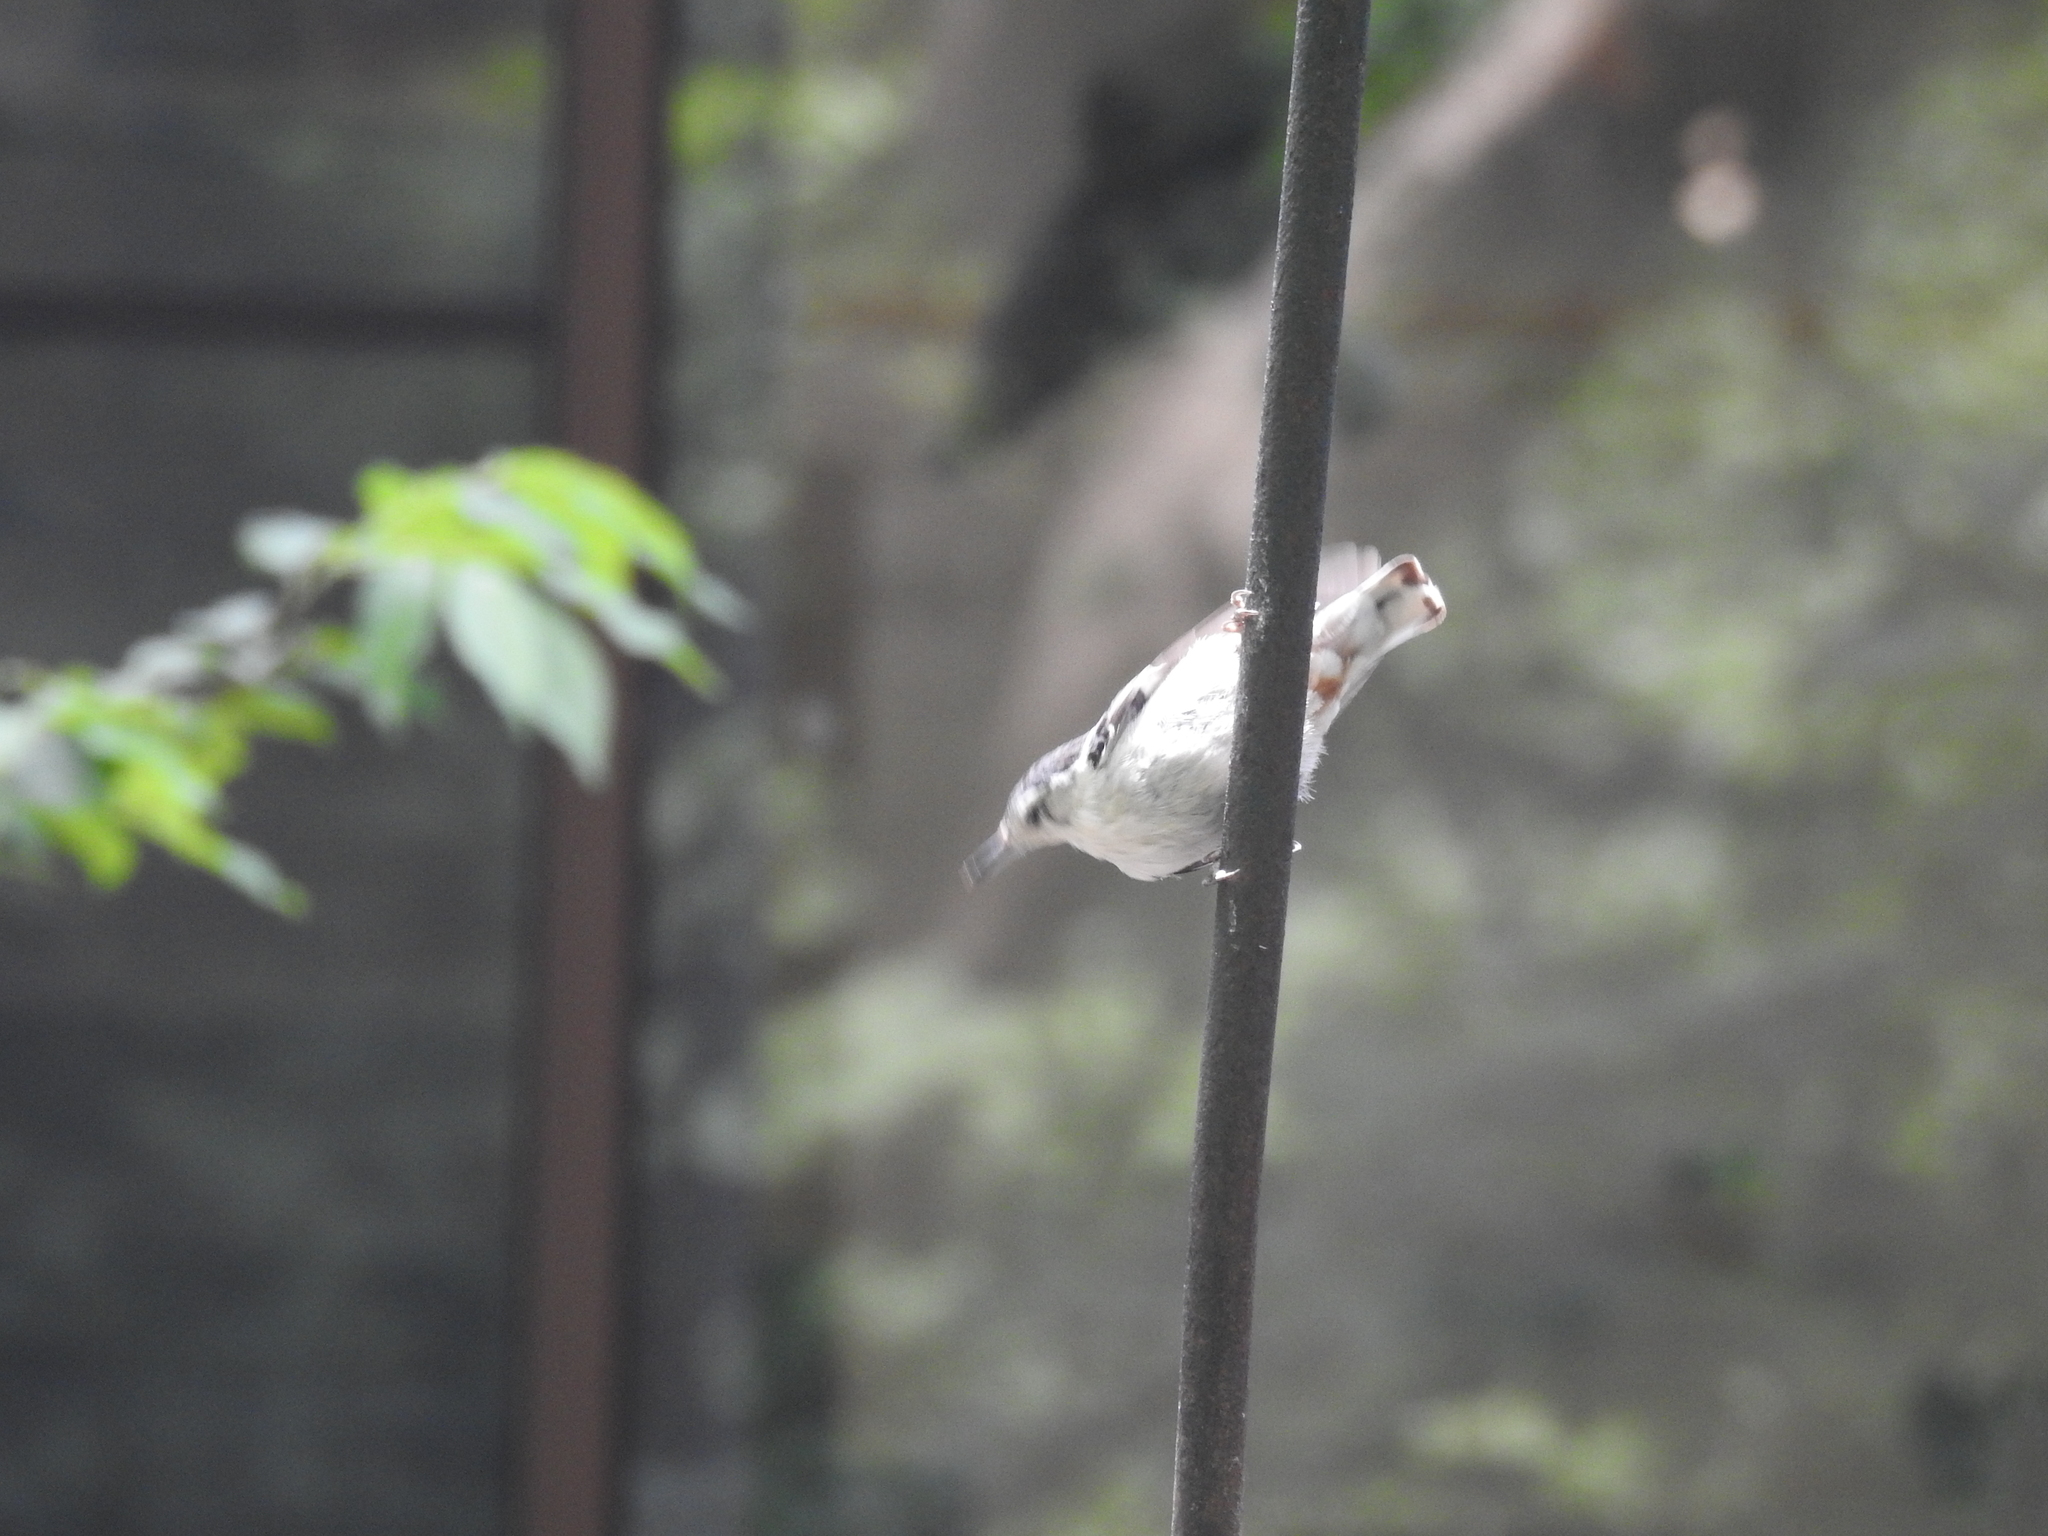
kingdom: Animalia
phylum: Chordata
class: Aves
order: Passeriformes
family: Sittidae
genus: Sitta
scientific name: Sitta carolinensis
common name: White-breasted nuthatch
